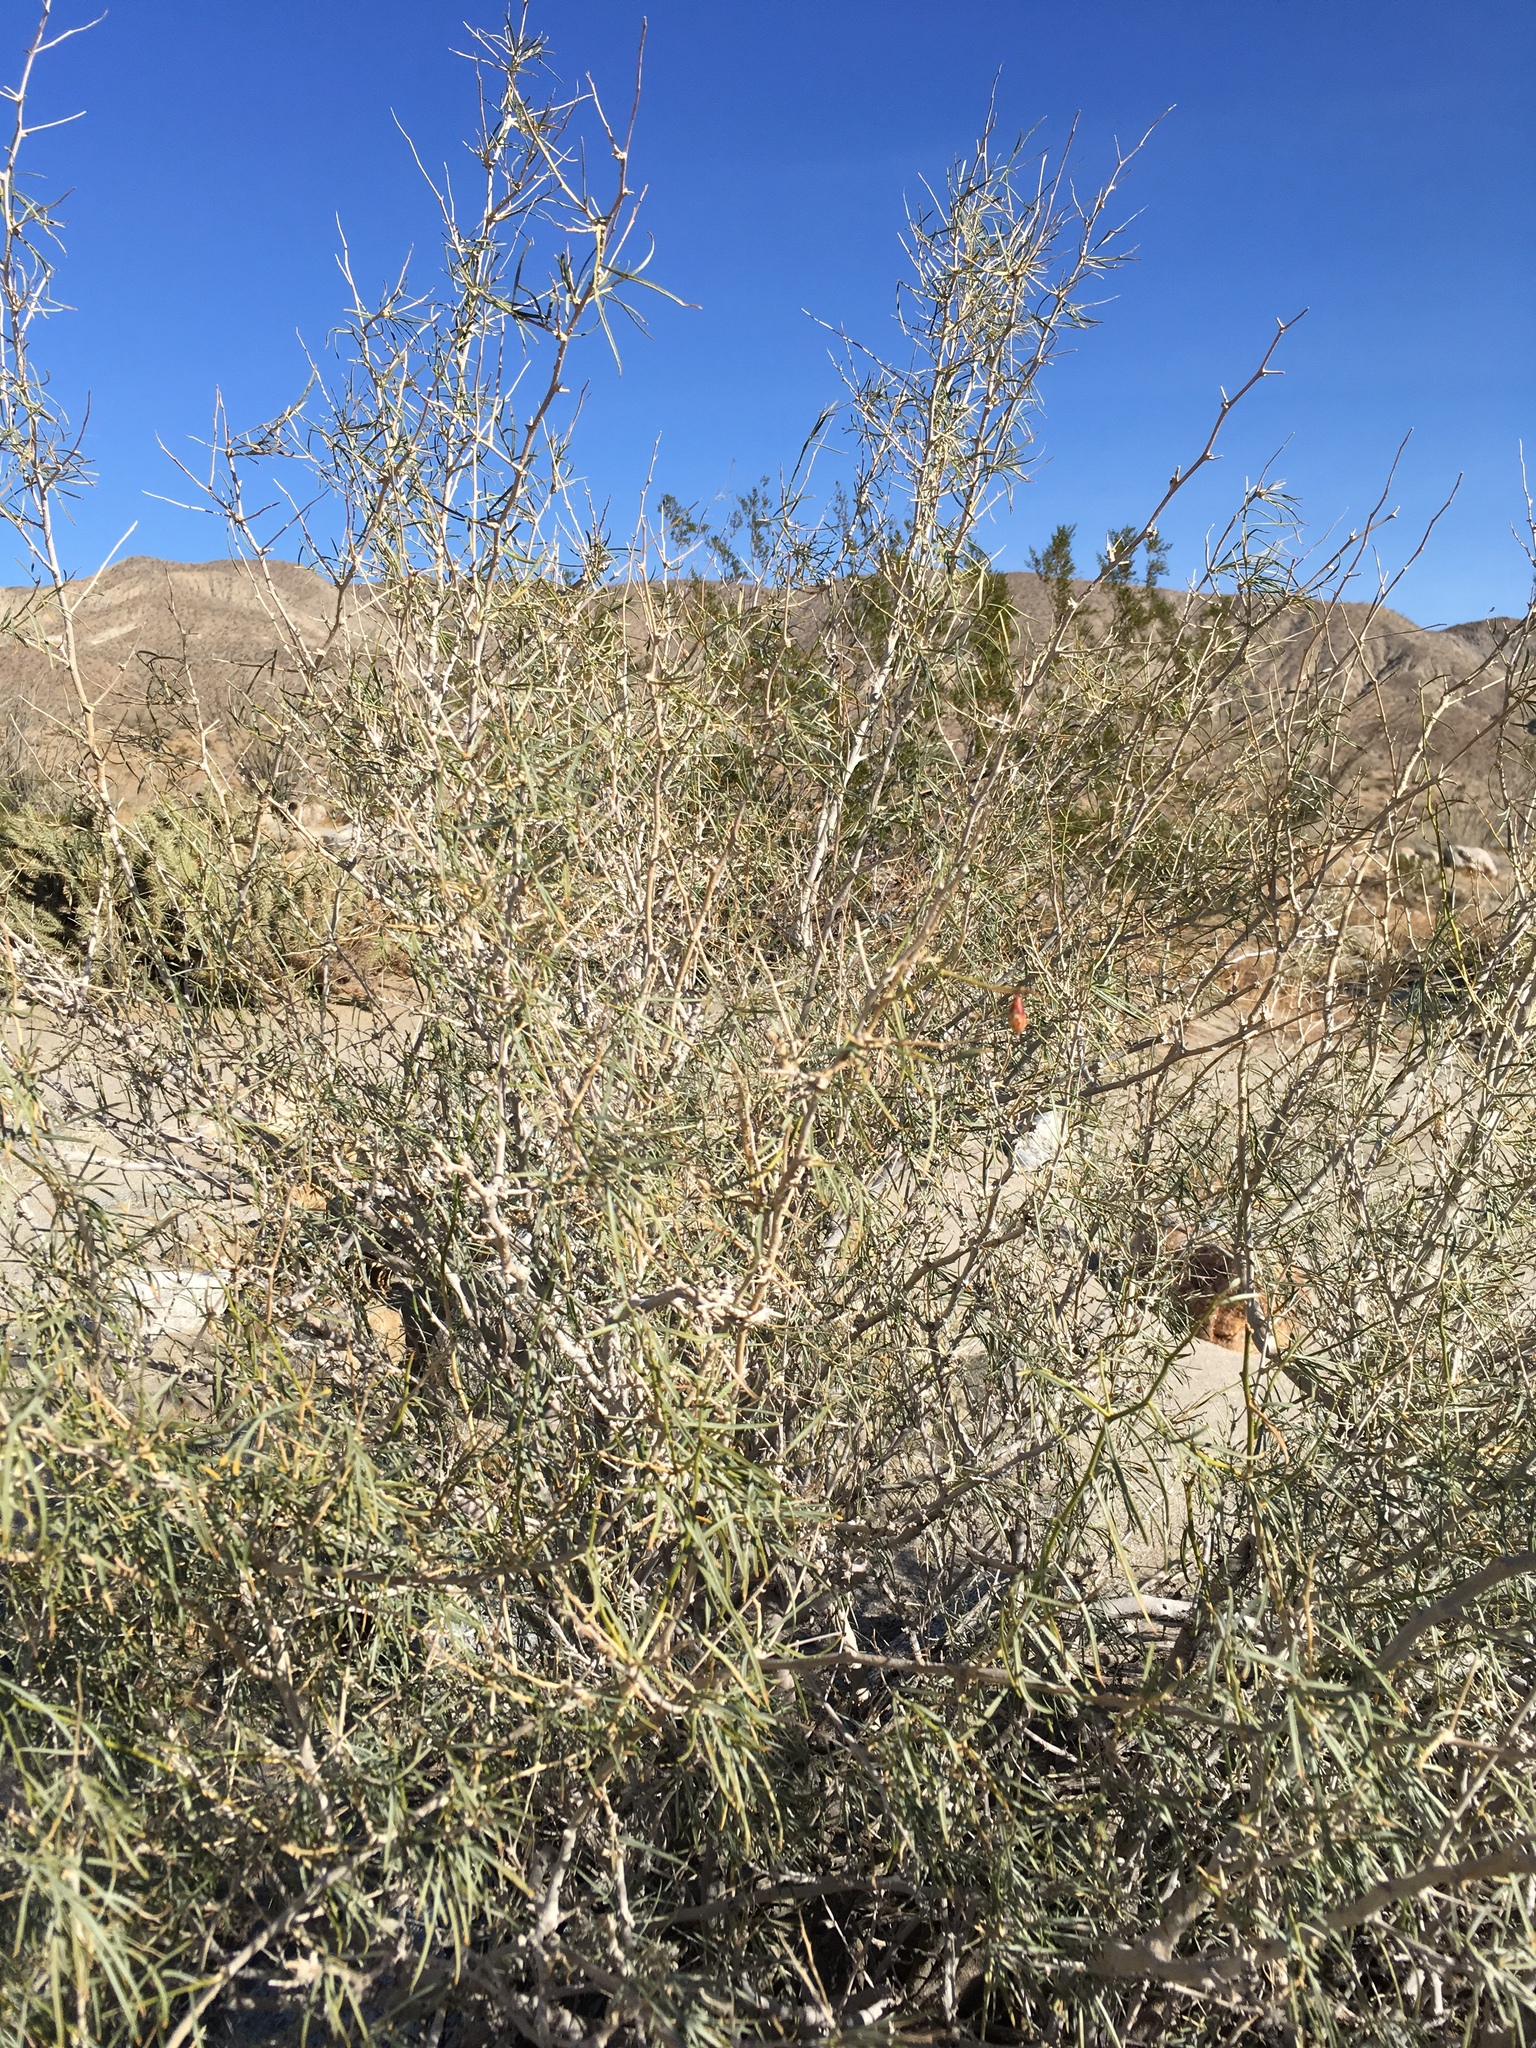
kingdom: Plantae
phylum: Tracheophyta
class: Magnoliopsida
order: Fabales
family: Fabaceae
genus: Psorothamnus
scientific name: Psorothamnus schottii
